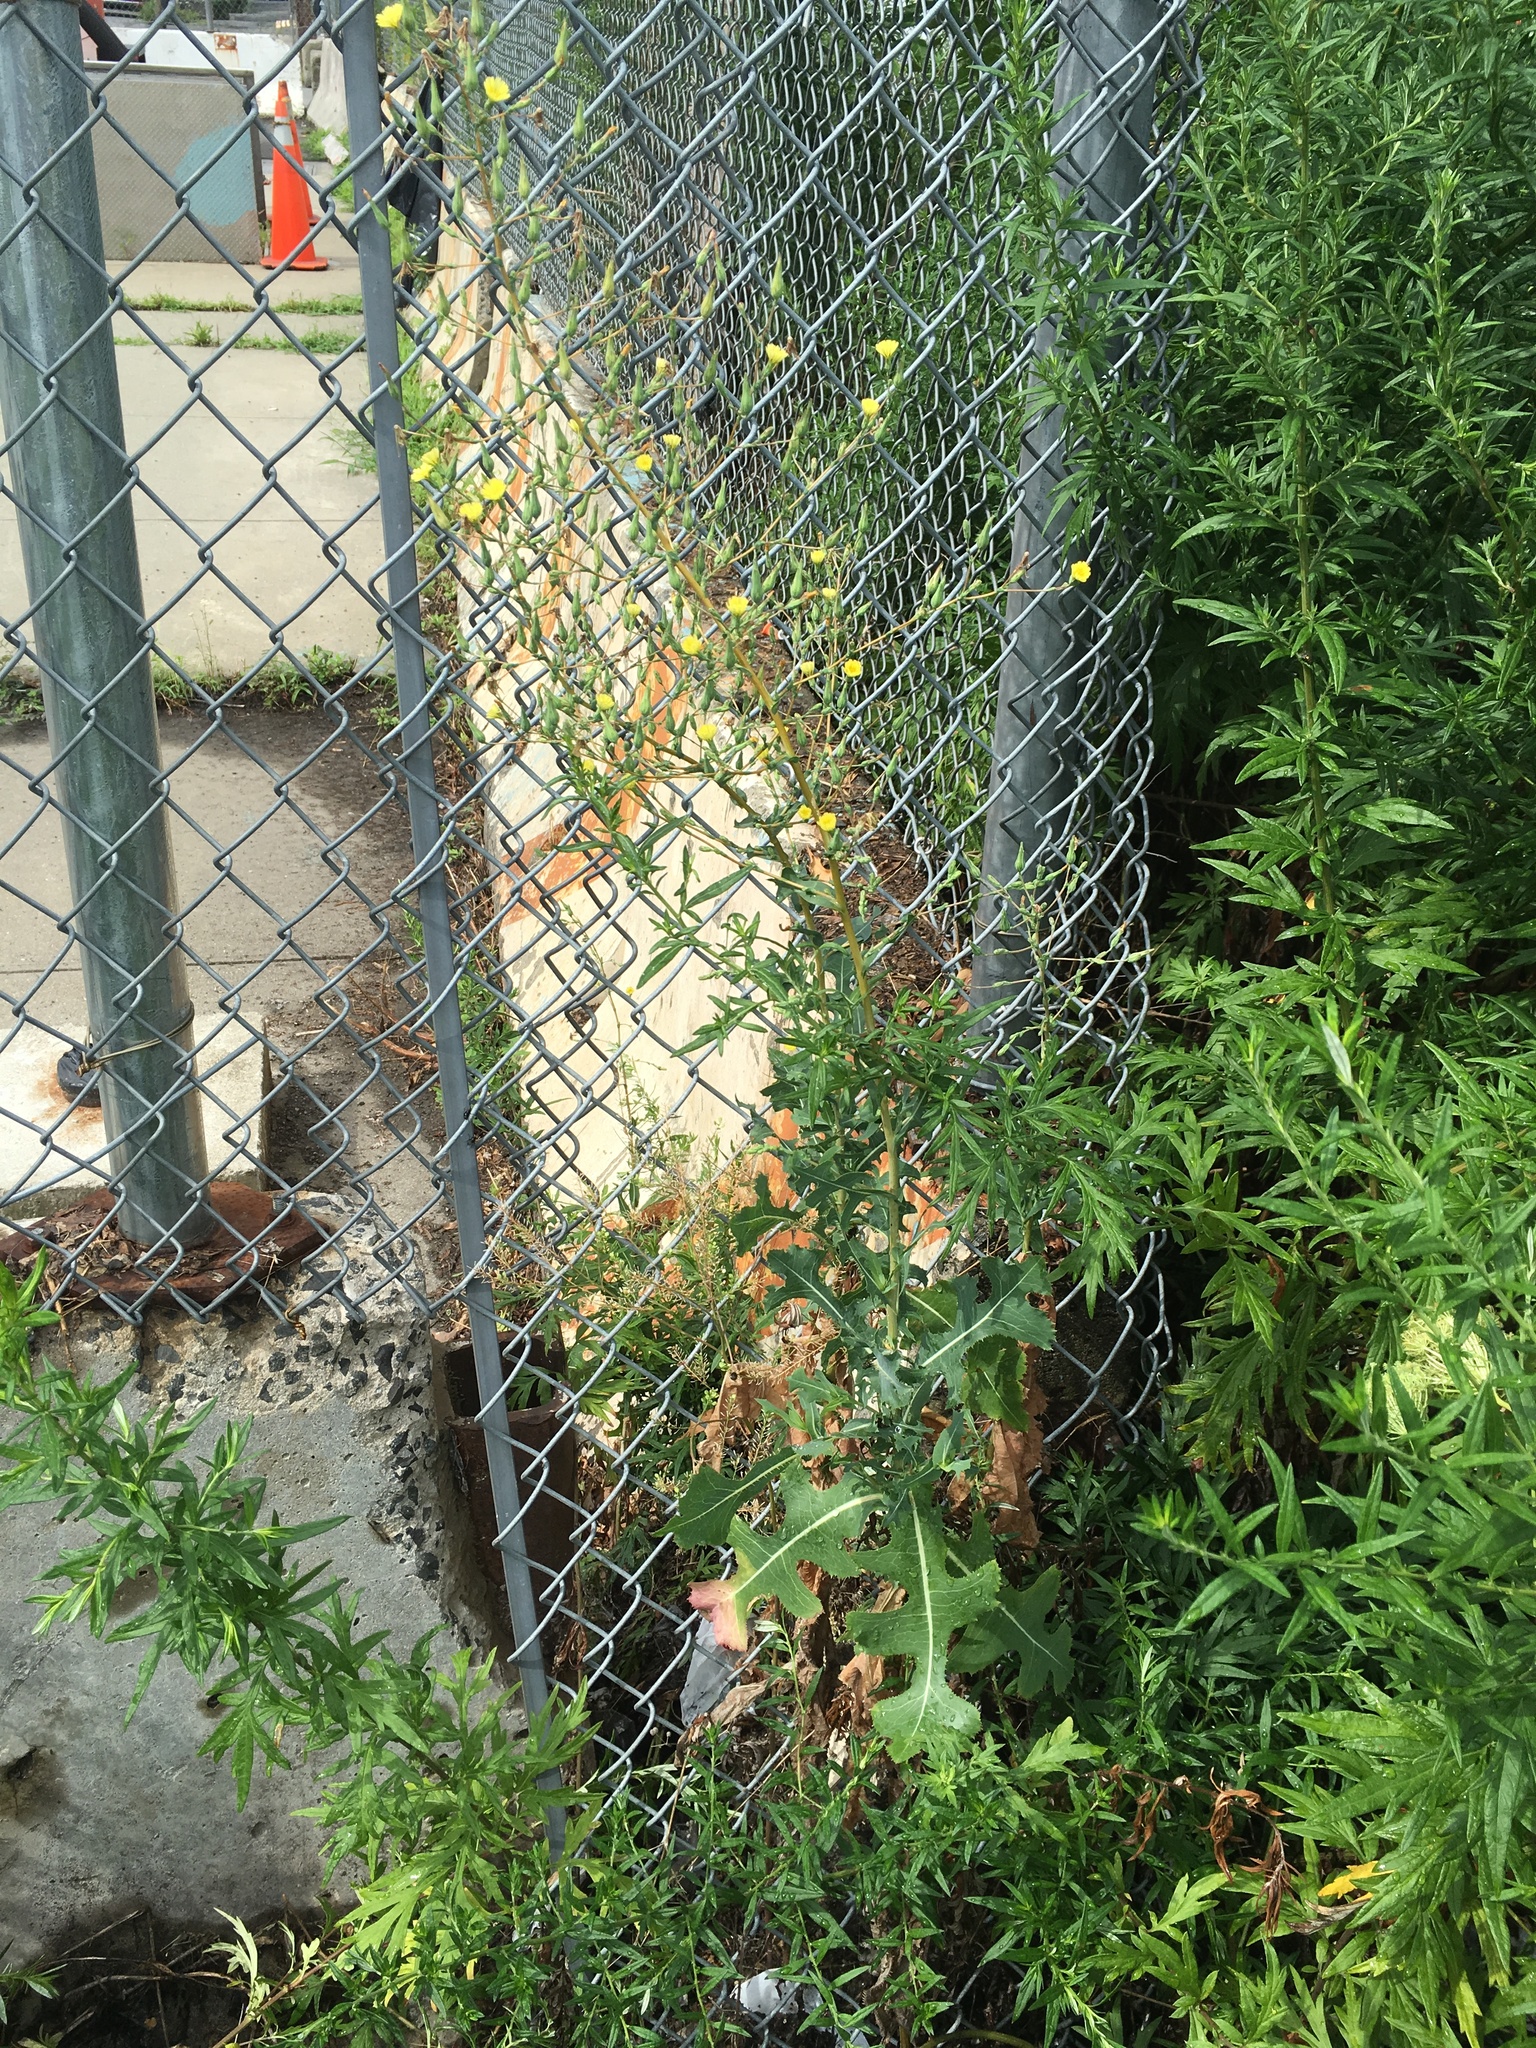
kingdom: Plantae
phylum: Tracheophyta
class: Magnoliopsida
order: Asterales
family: Asteraceae
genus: Lactuca
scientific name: Lactuca serriola
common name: Prickly lettuce
